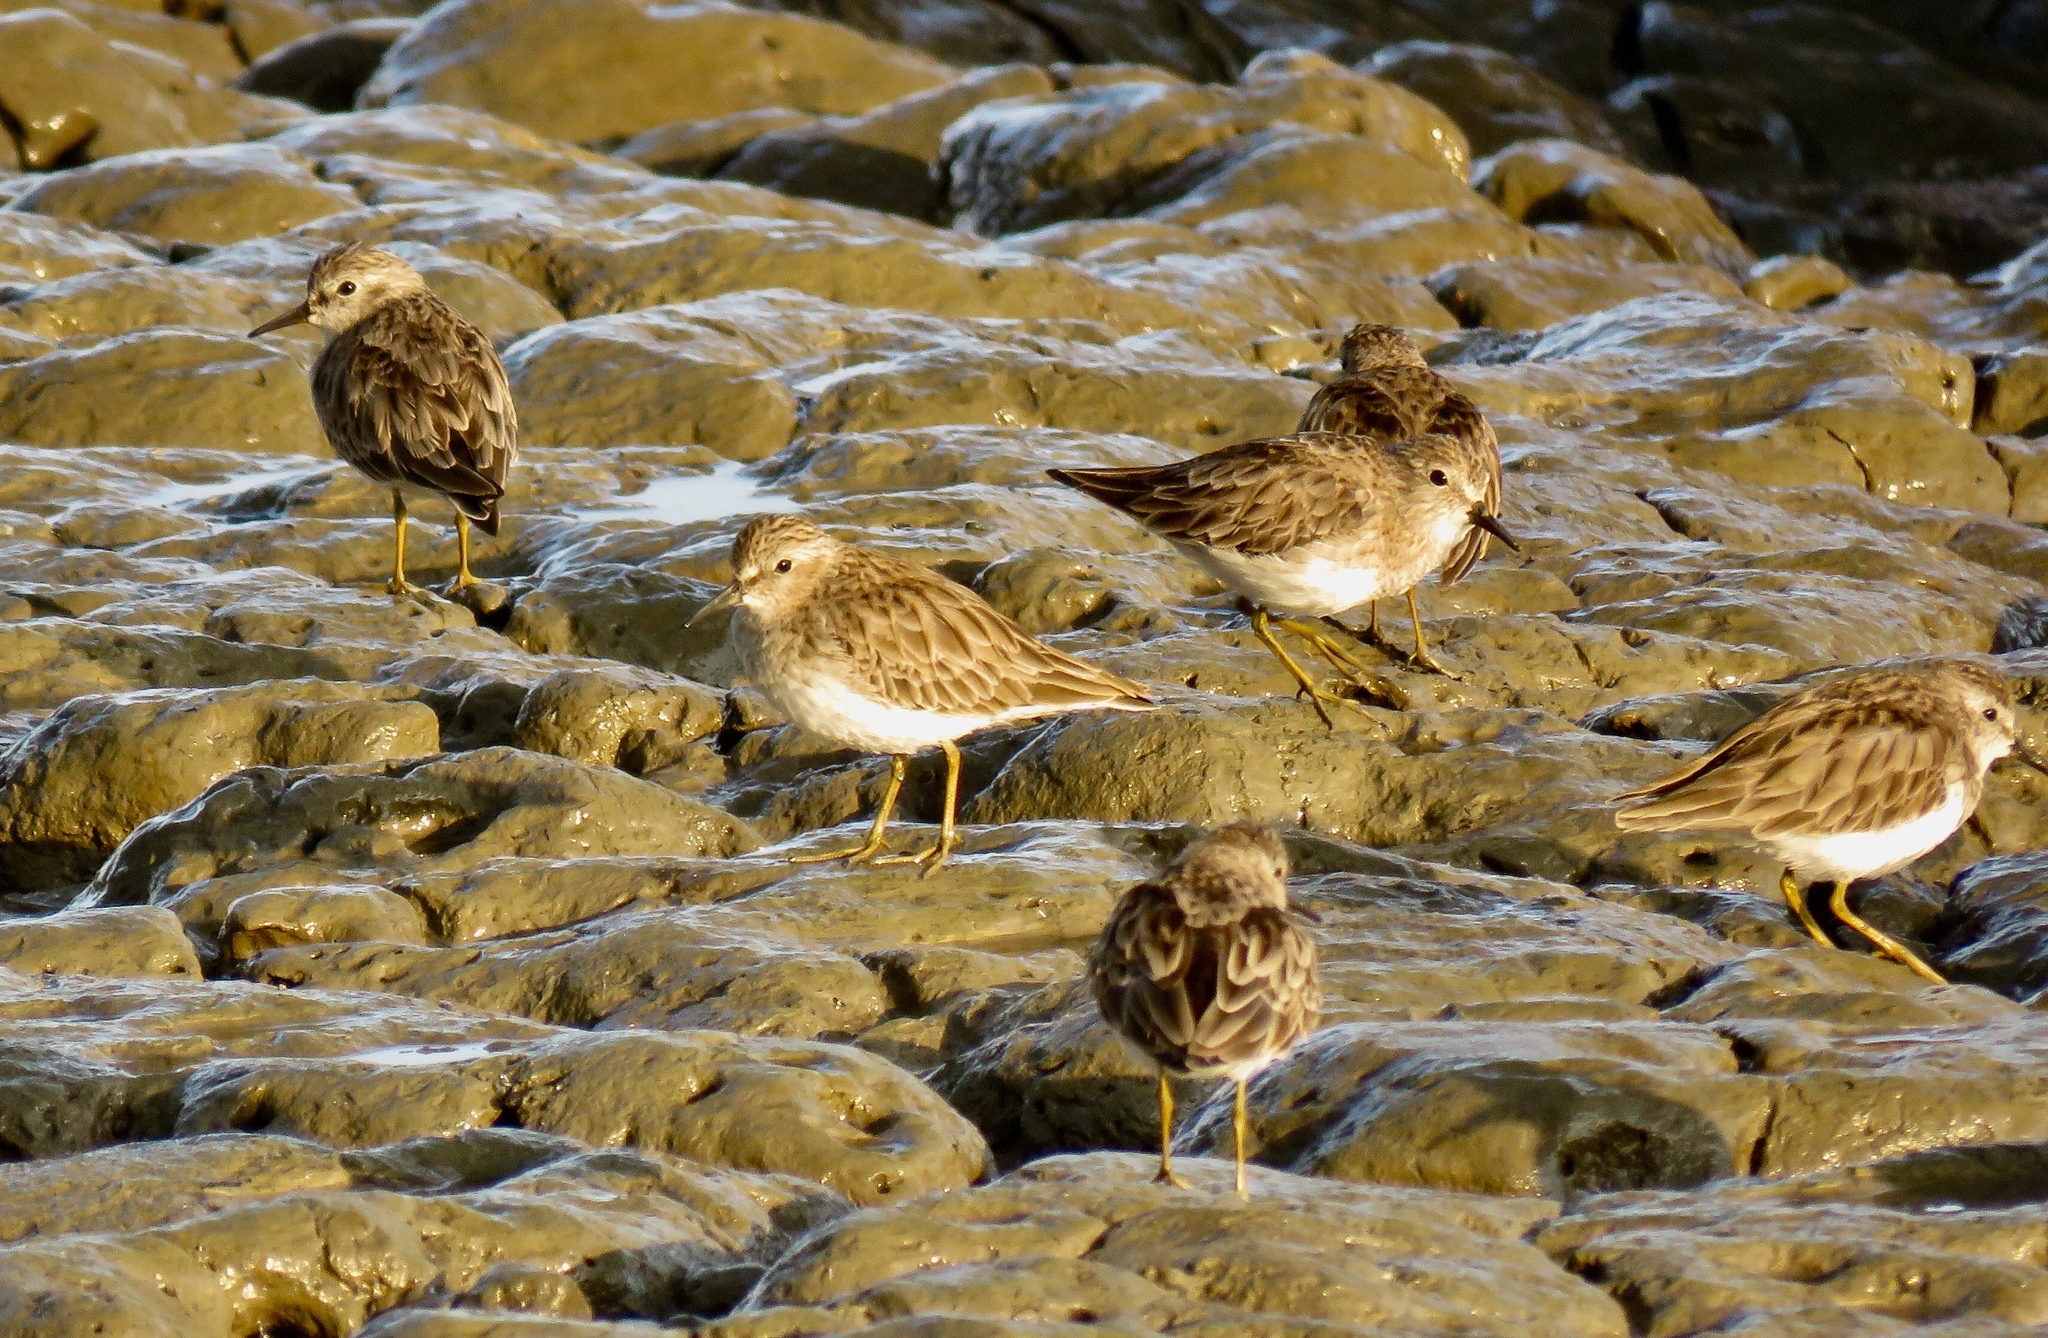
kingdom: Animalia
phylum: Chordata
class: Aves
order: Charadriiformes
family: Scolopacidae
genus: Calidris
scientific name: Calidris minutilla
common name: Least sandpiper
